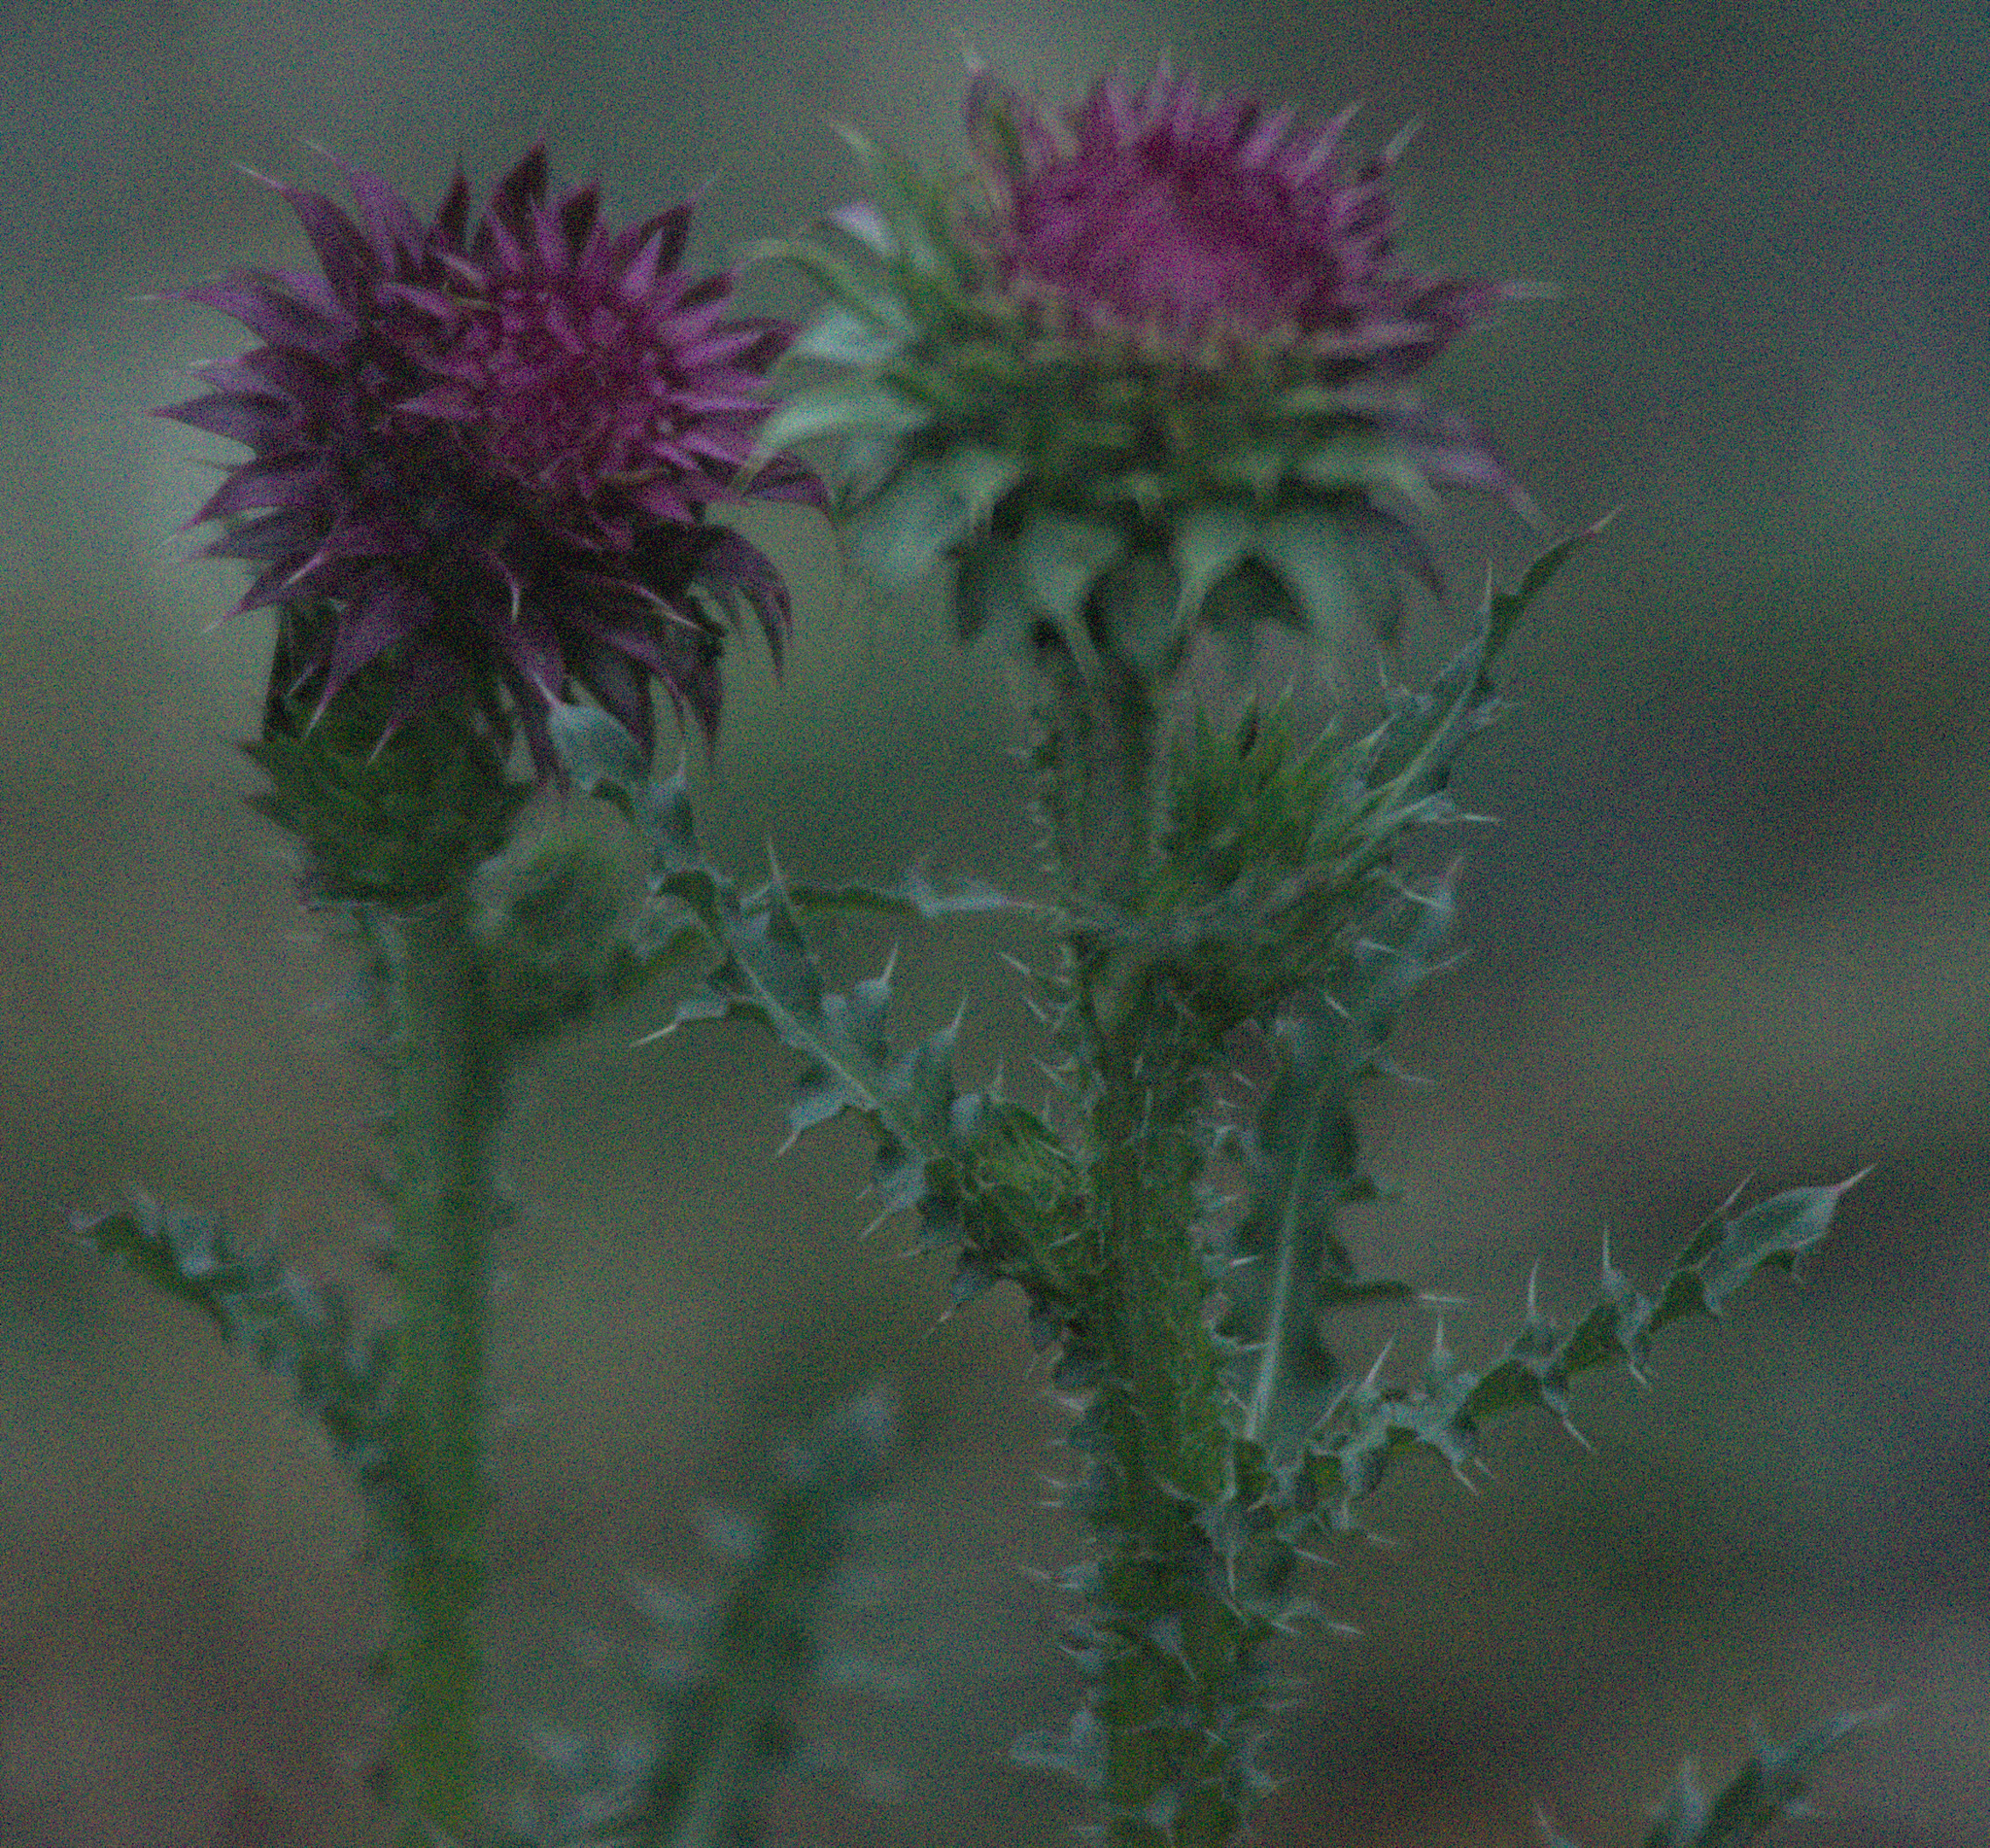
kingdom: Plantae
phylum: Tracheophyta
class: Magnoliopsida
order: Asterales
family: Asteraceae
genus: Carduus
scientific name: Carduus nutans
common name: Musk thistle
